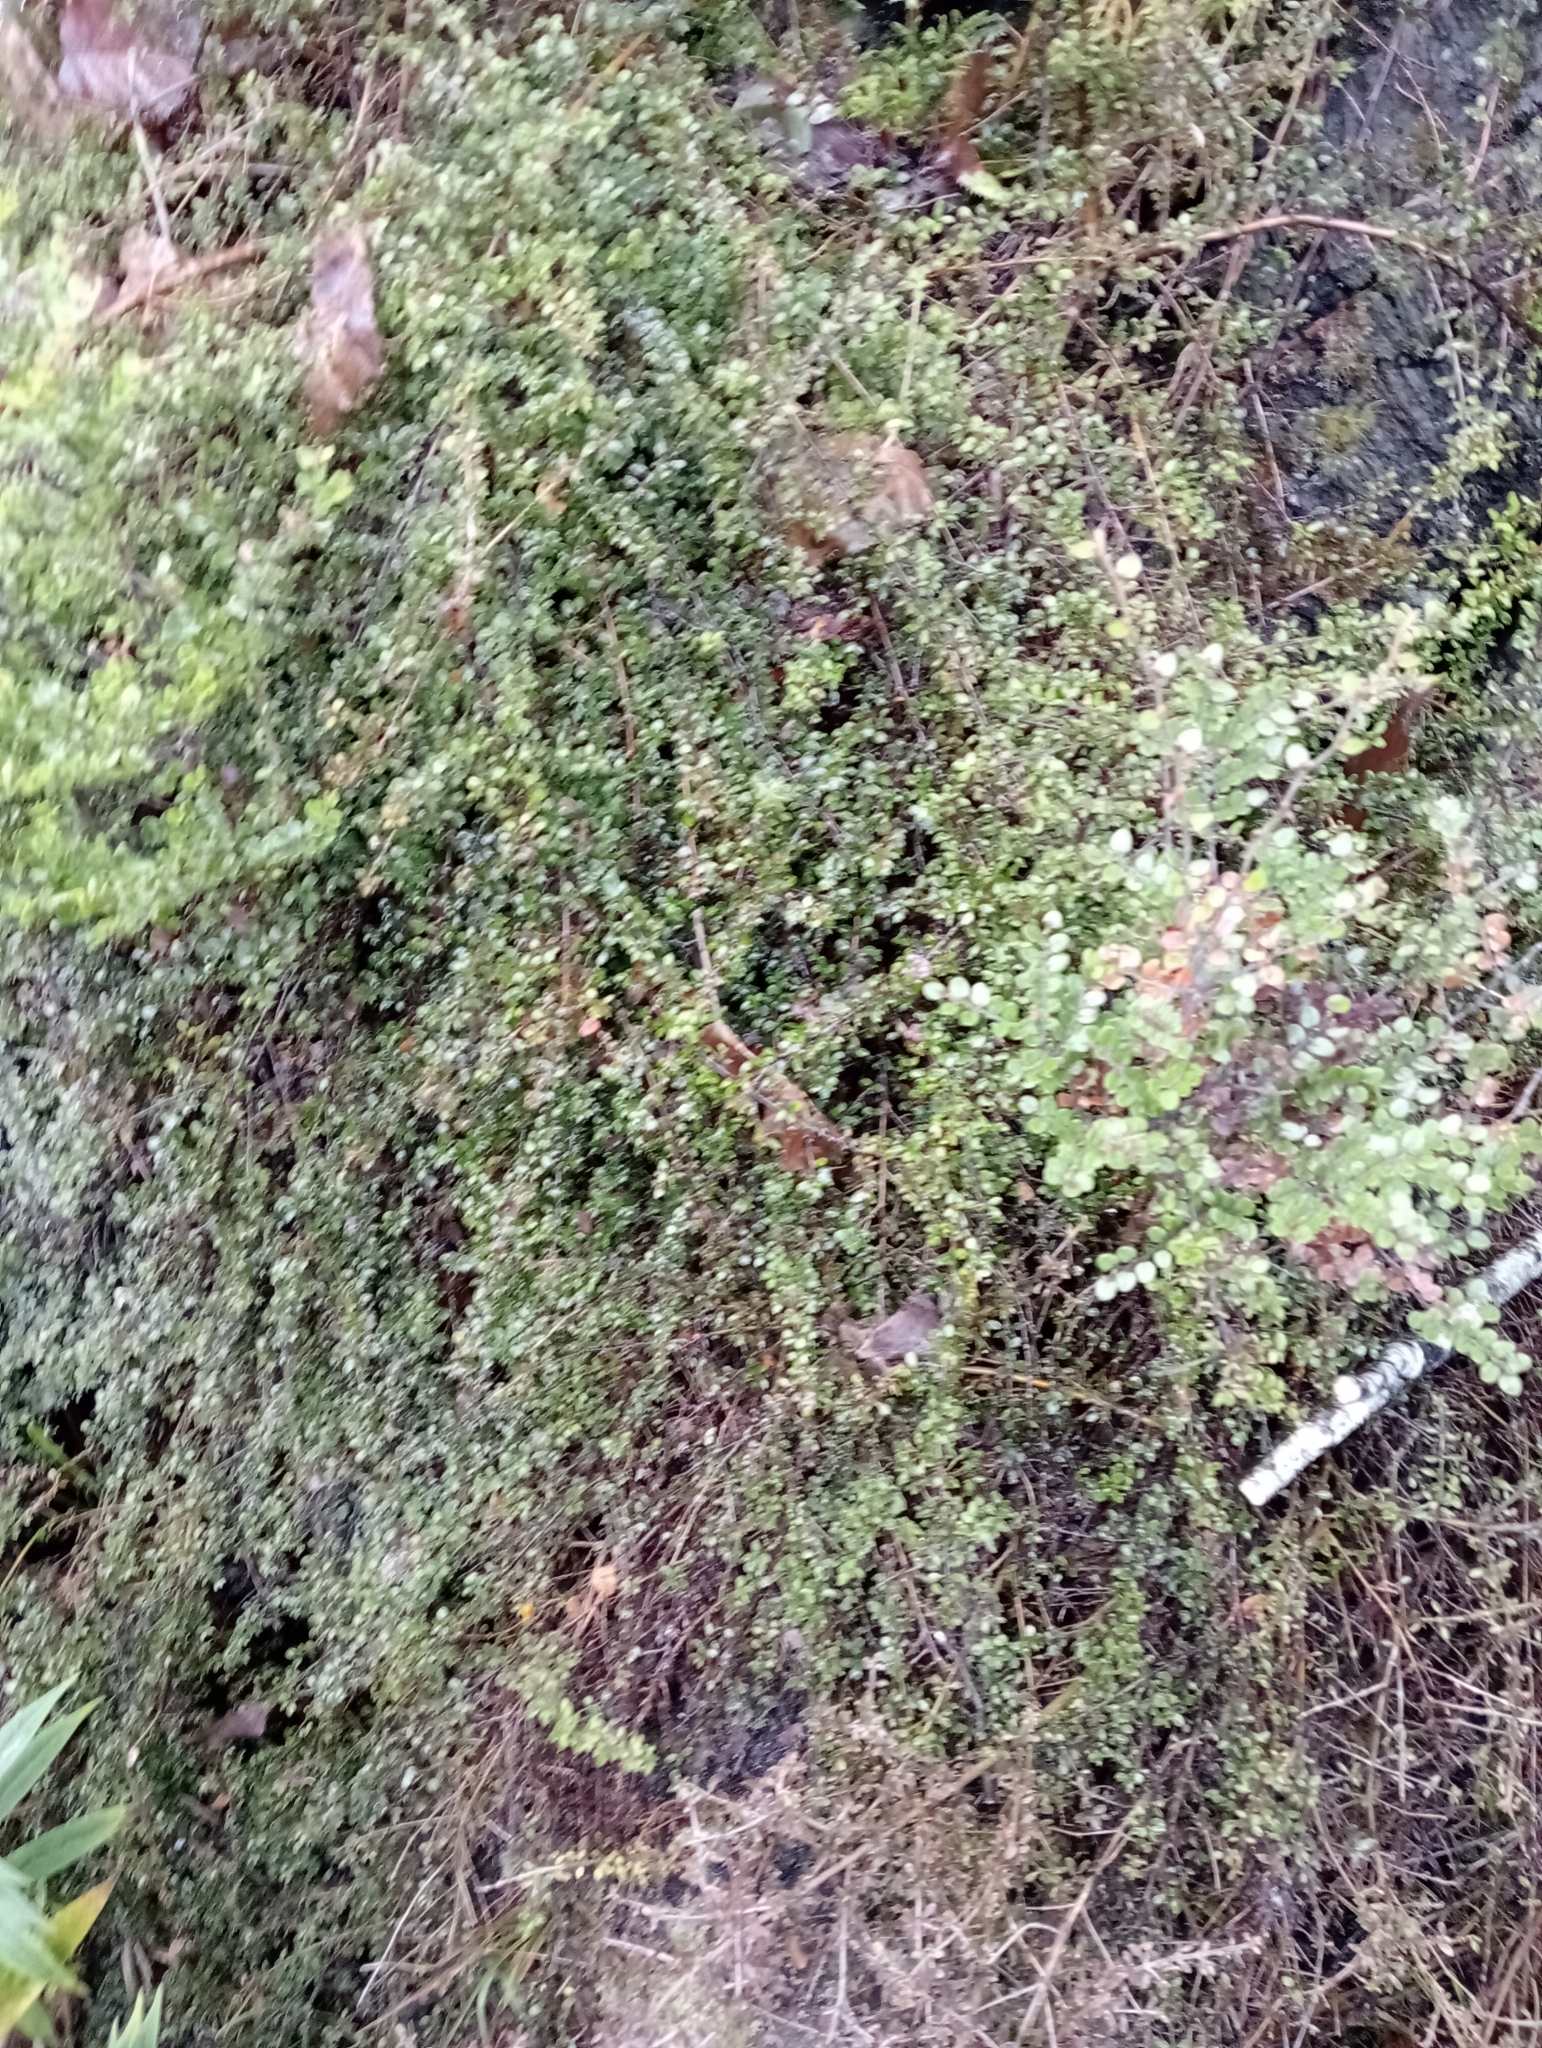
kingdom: Plantae
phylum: Tracheophyta
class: Magnoliopsida
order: Gentianales
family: Rubiaceae
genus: Coprosma
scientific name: Coprosma depressa
